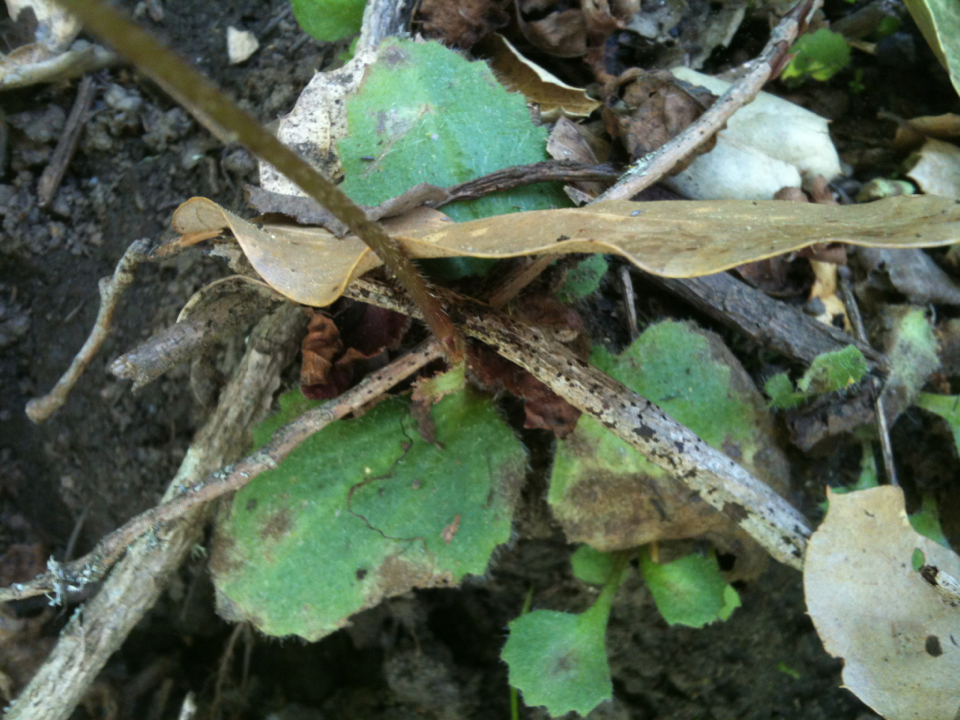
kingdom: Plantae
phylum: Tracheophyta
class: Magnoliopsida
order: Saxifragales
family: Saxifragaceae
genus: Micranthes
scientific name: Micranthes californica
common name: California saxifrage
